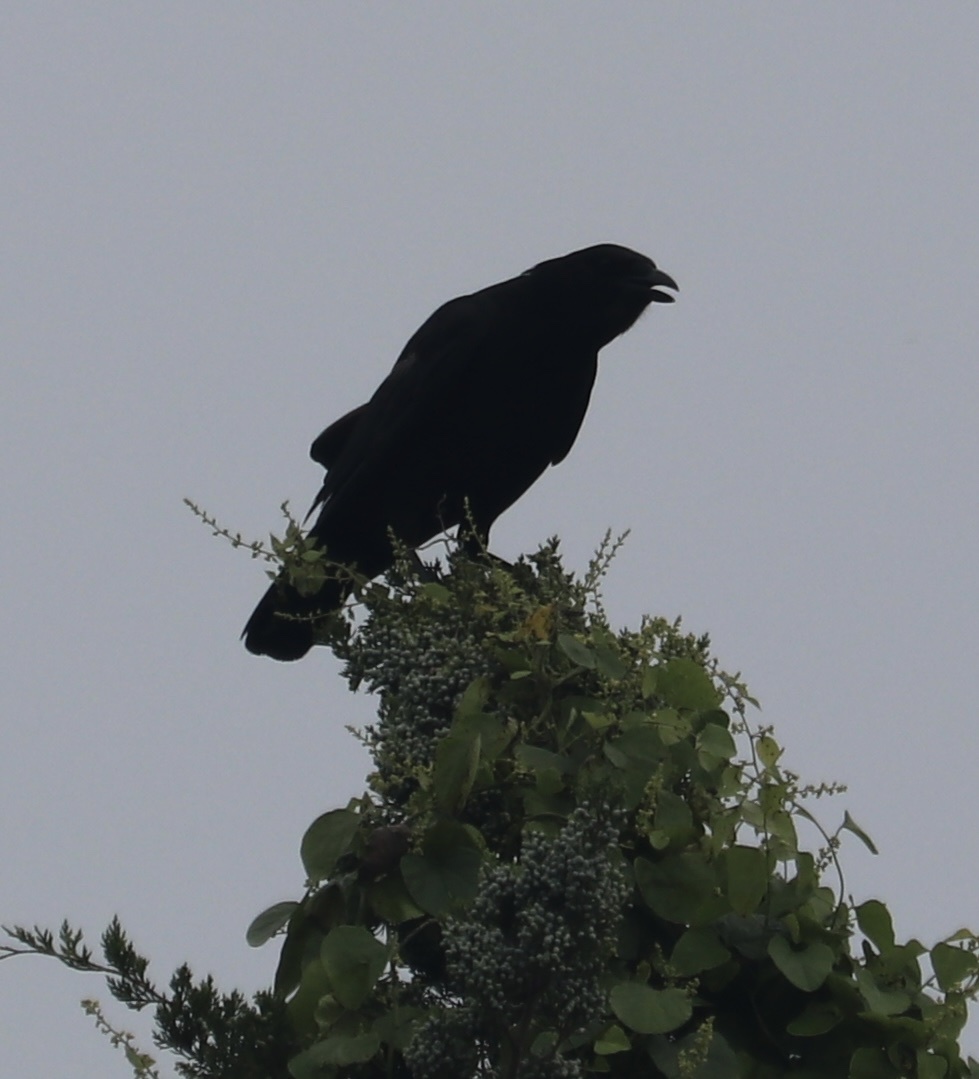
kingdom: Animalia
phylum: Chordata
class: Aves
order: Passeriformes
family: Corvidae
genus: Corvus
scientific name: Corvus brachyrhynchos
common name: American crow
